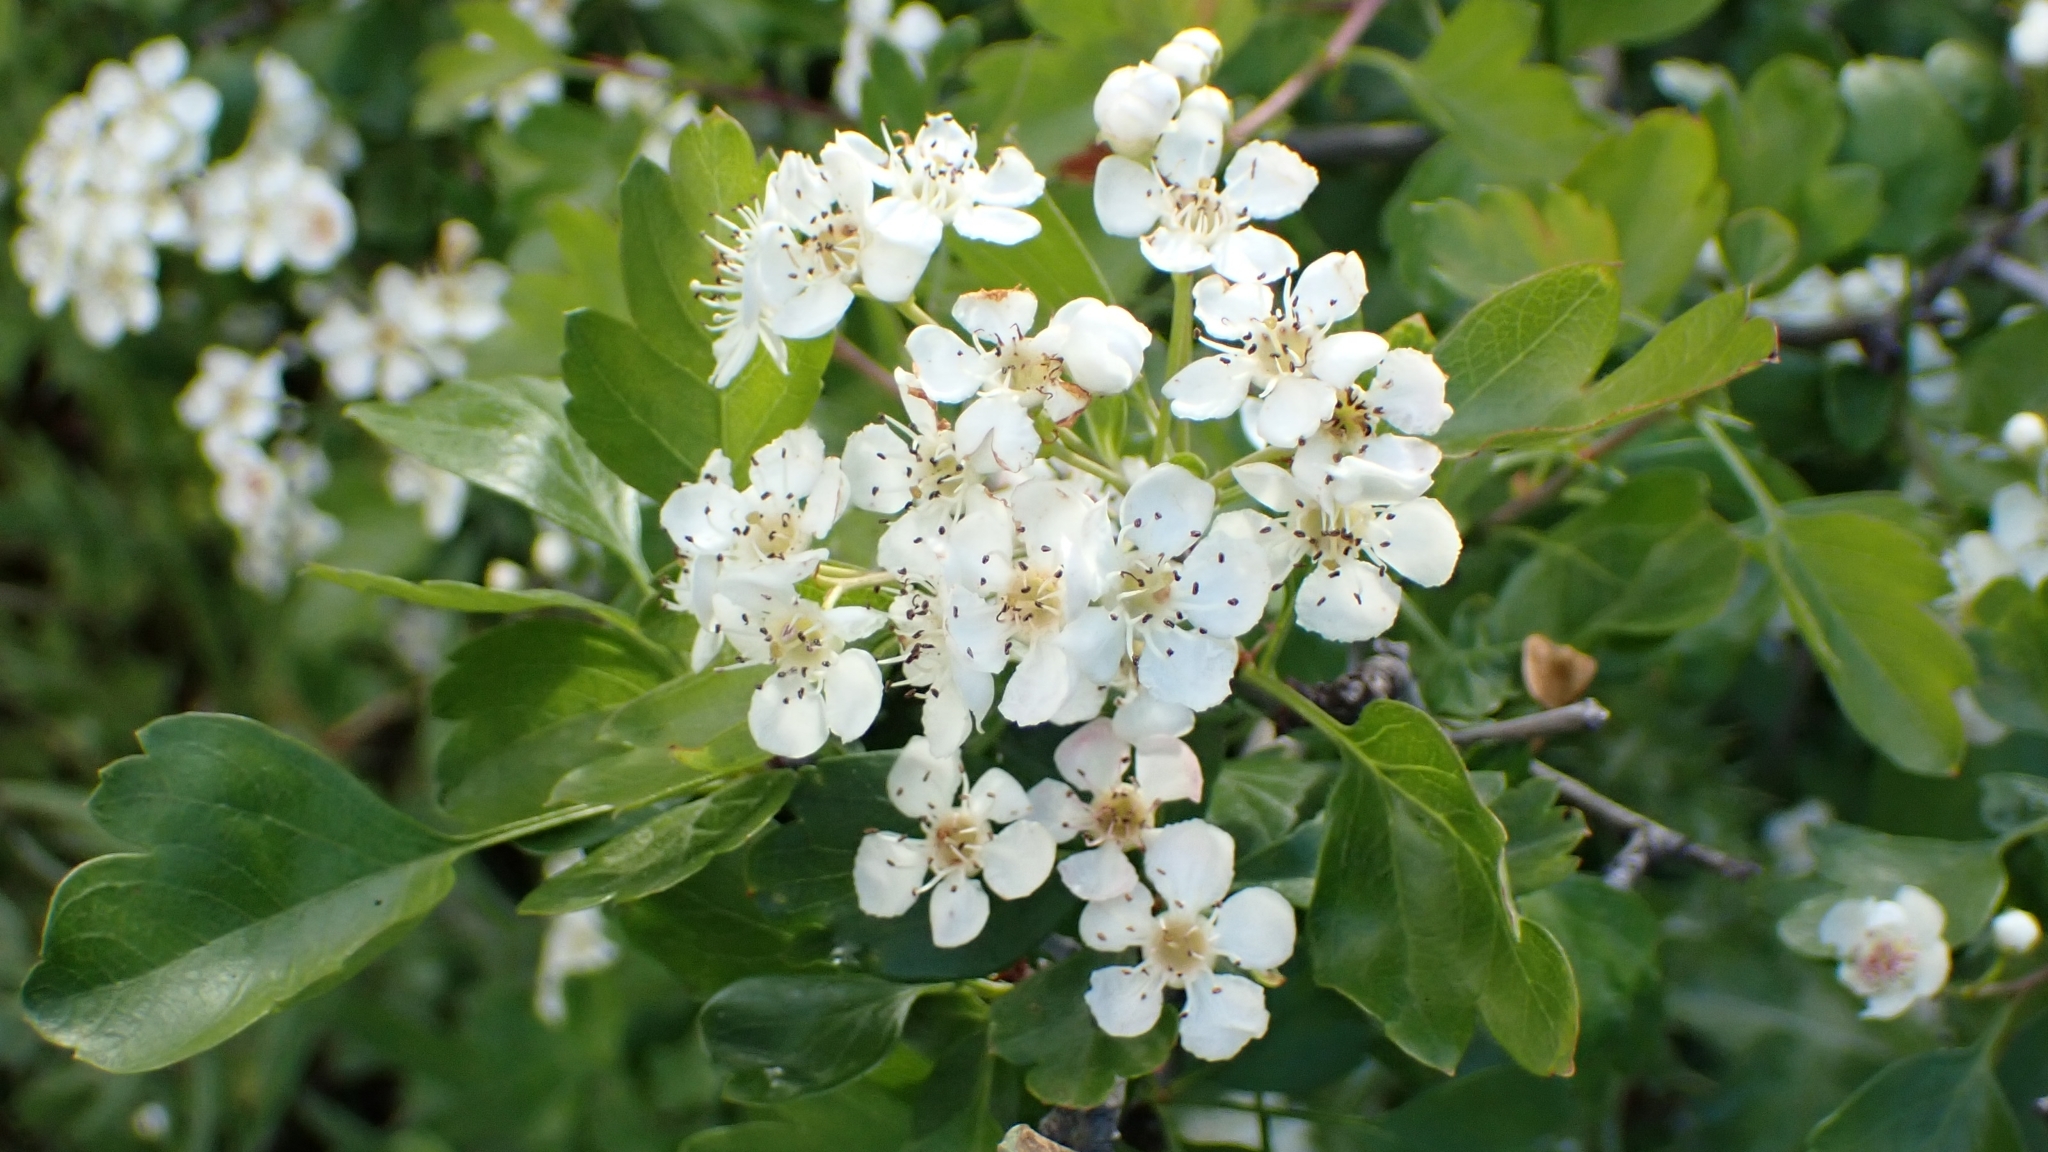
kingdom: Plantae
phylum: Tracheophyta
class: Magnoliopsida
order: Rosales
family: Rosaceae
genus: Crataegus
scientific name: Crataegus monogyna
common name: Hawthorn
